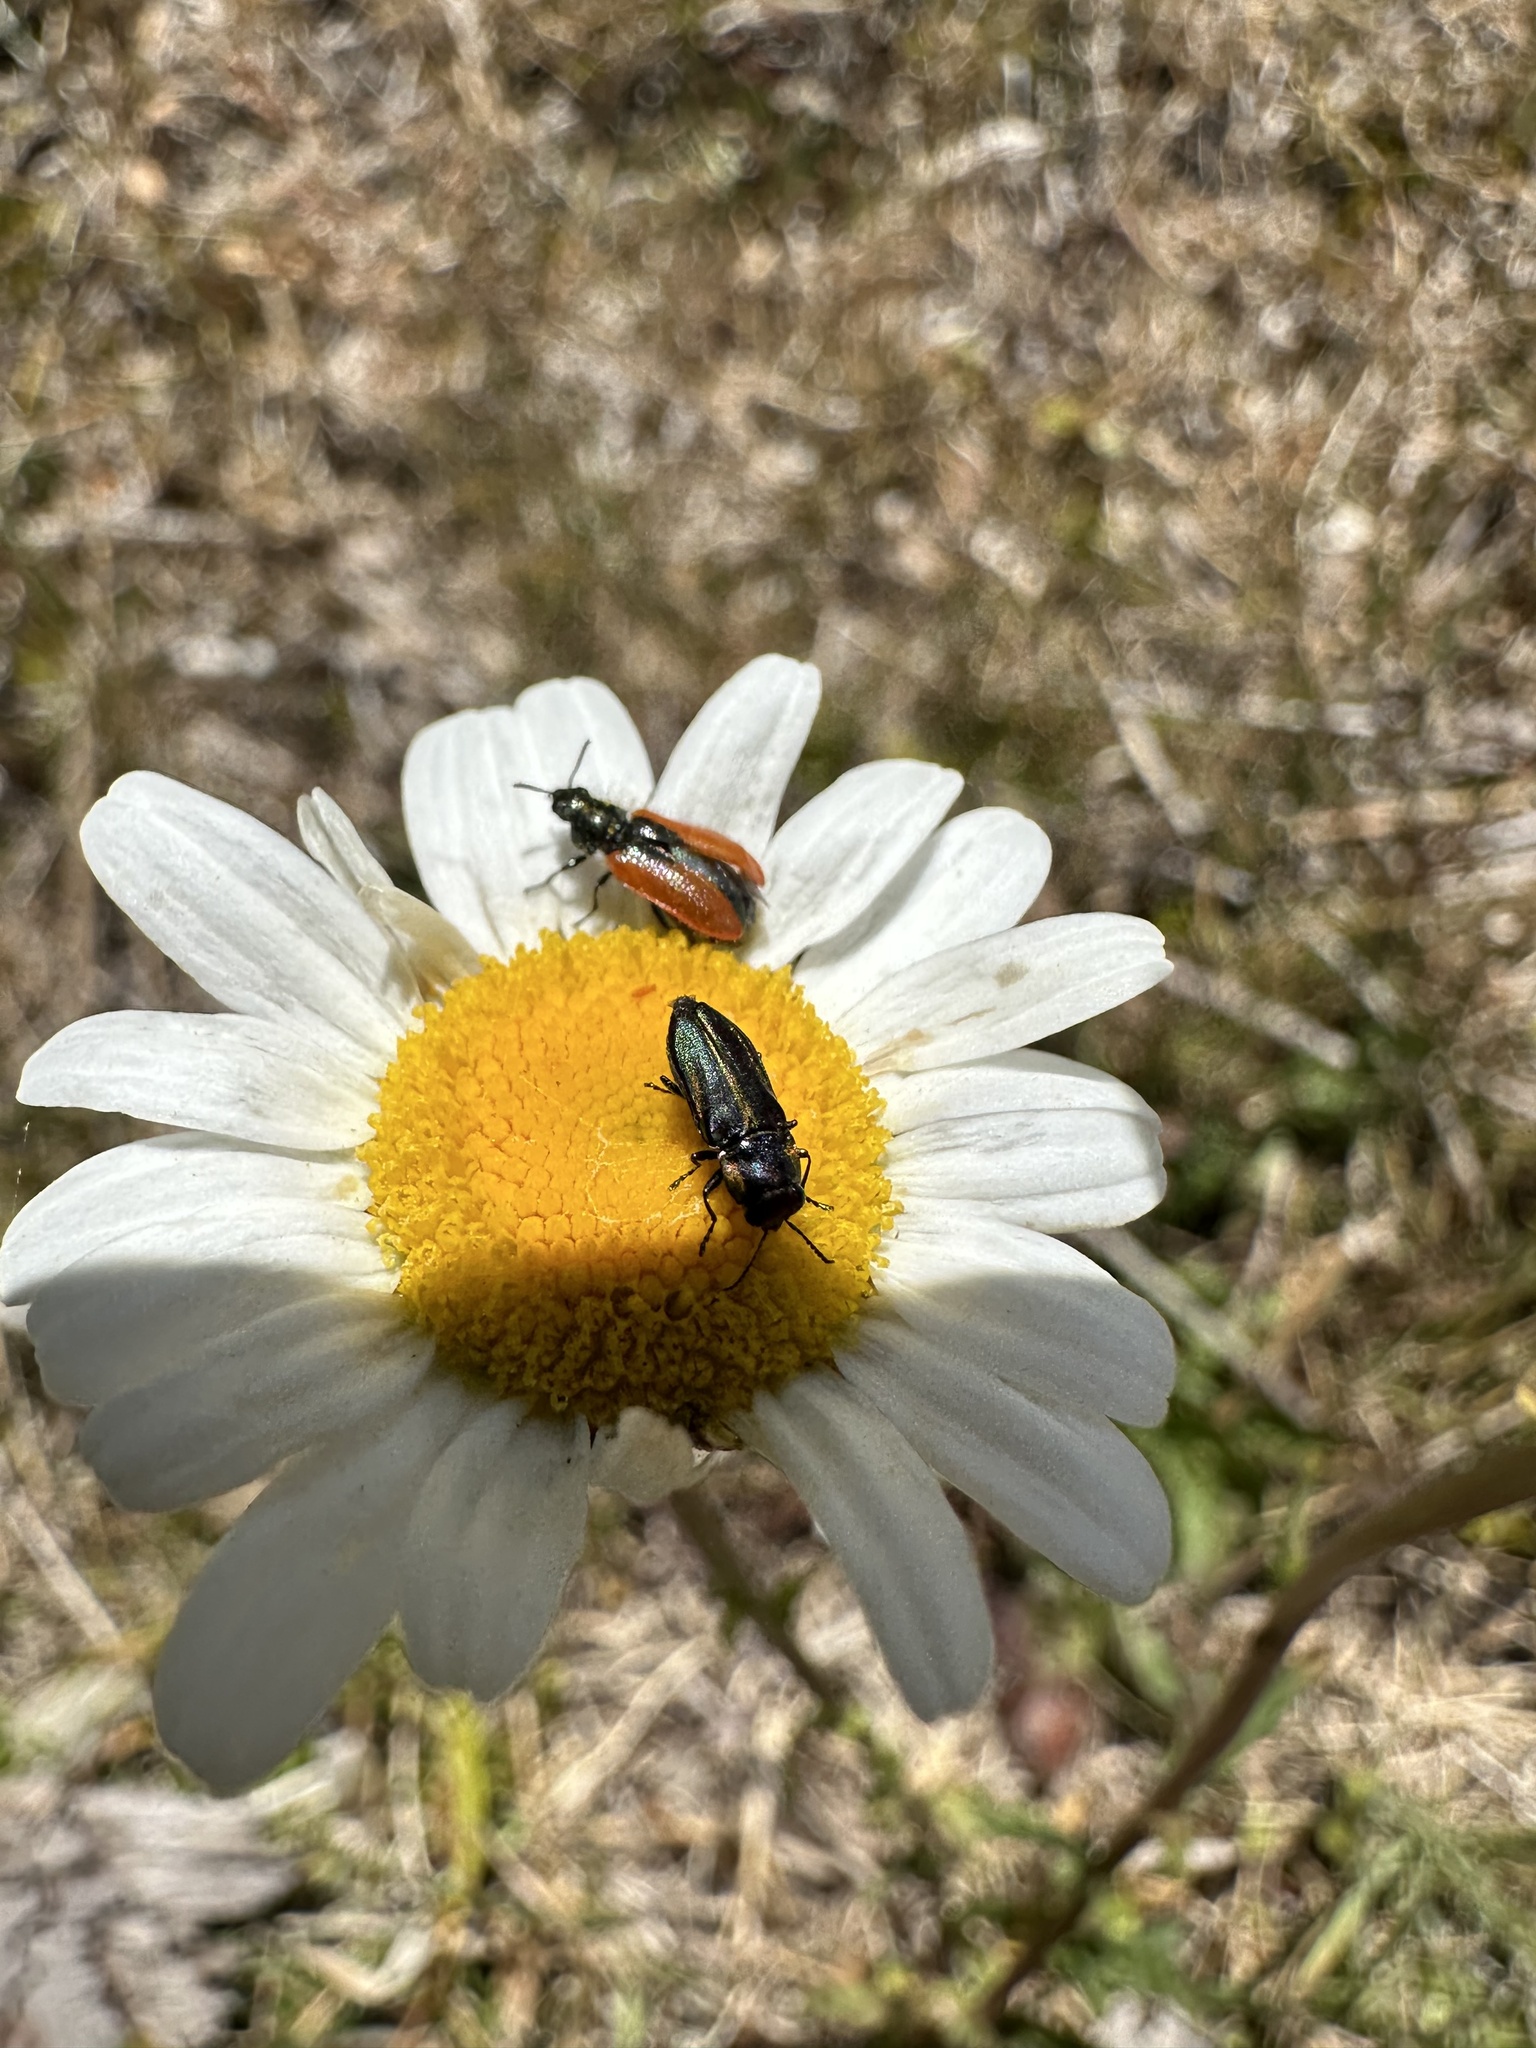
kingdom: Animalia
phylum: Arthropoda
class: Insecta
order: Coleoptera
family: Melyridae
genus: Arthrobrachus
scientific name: Arthrobrachus nigromaculatus
